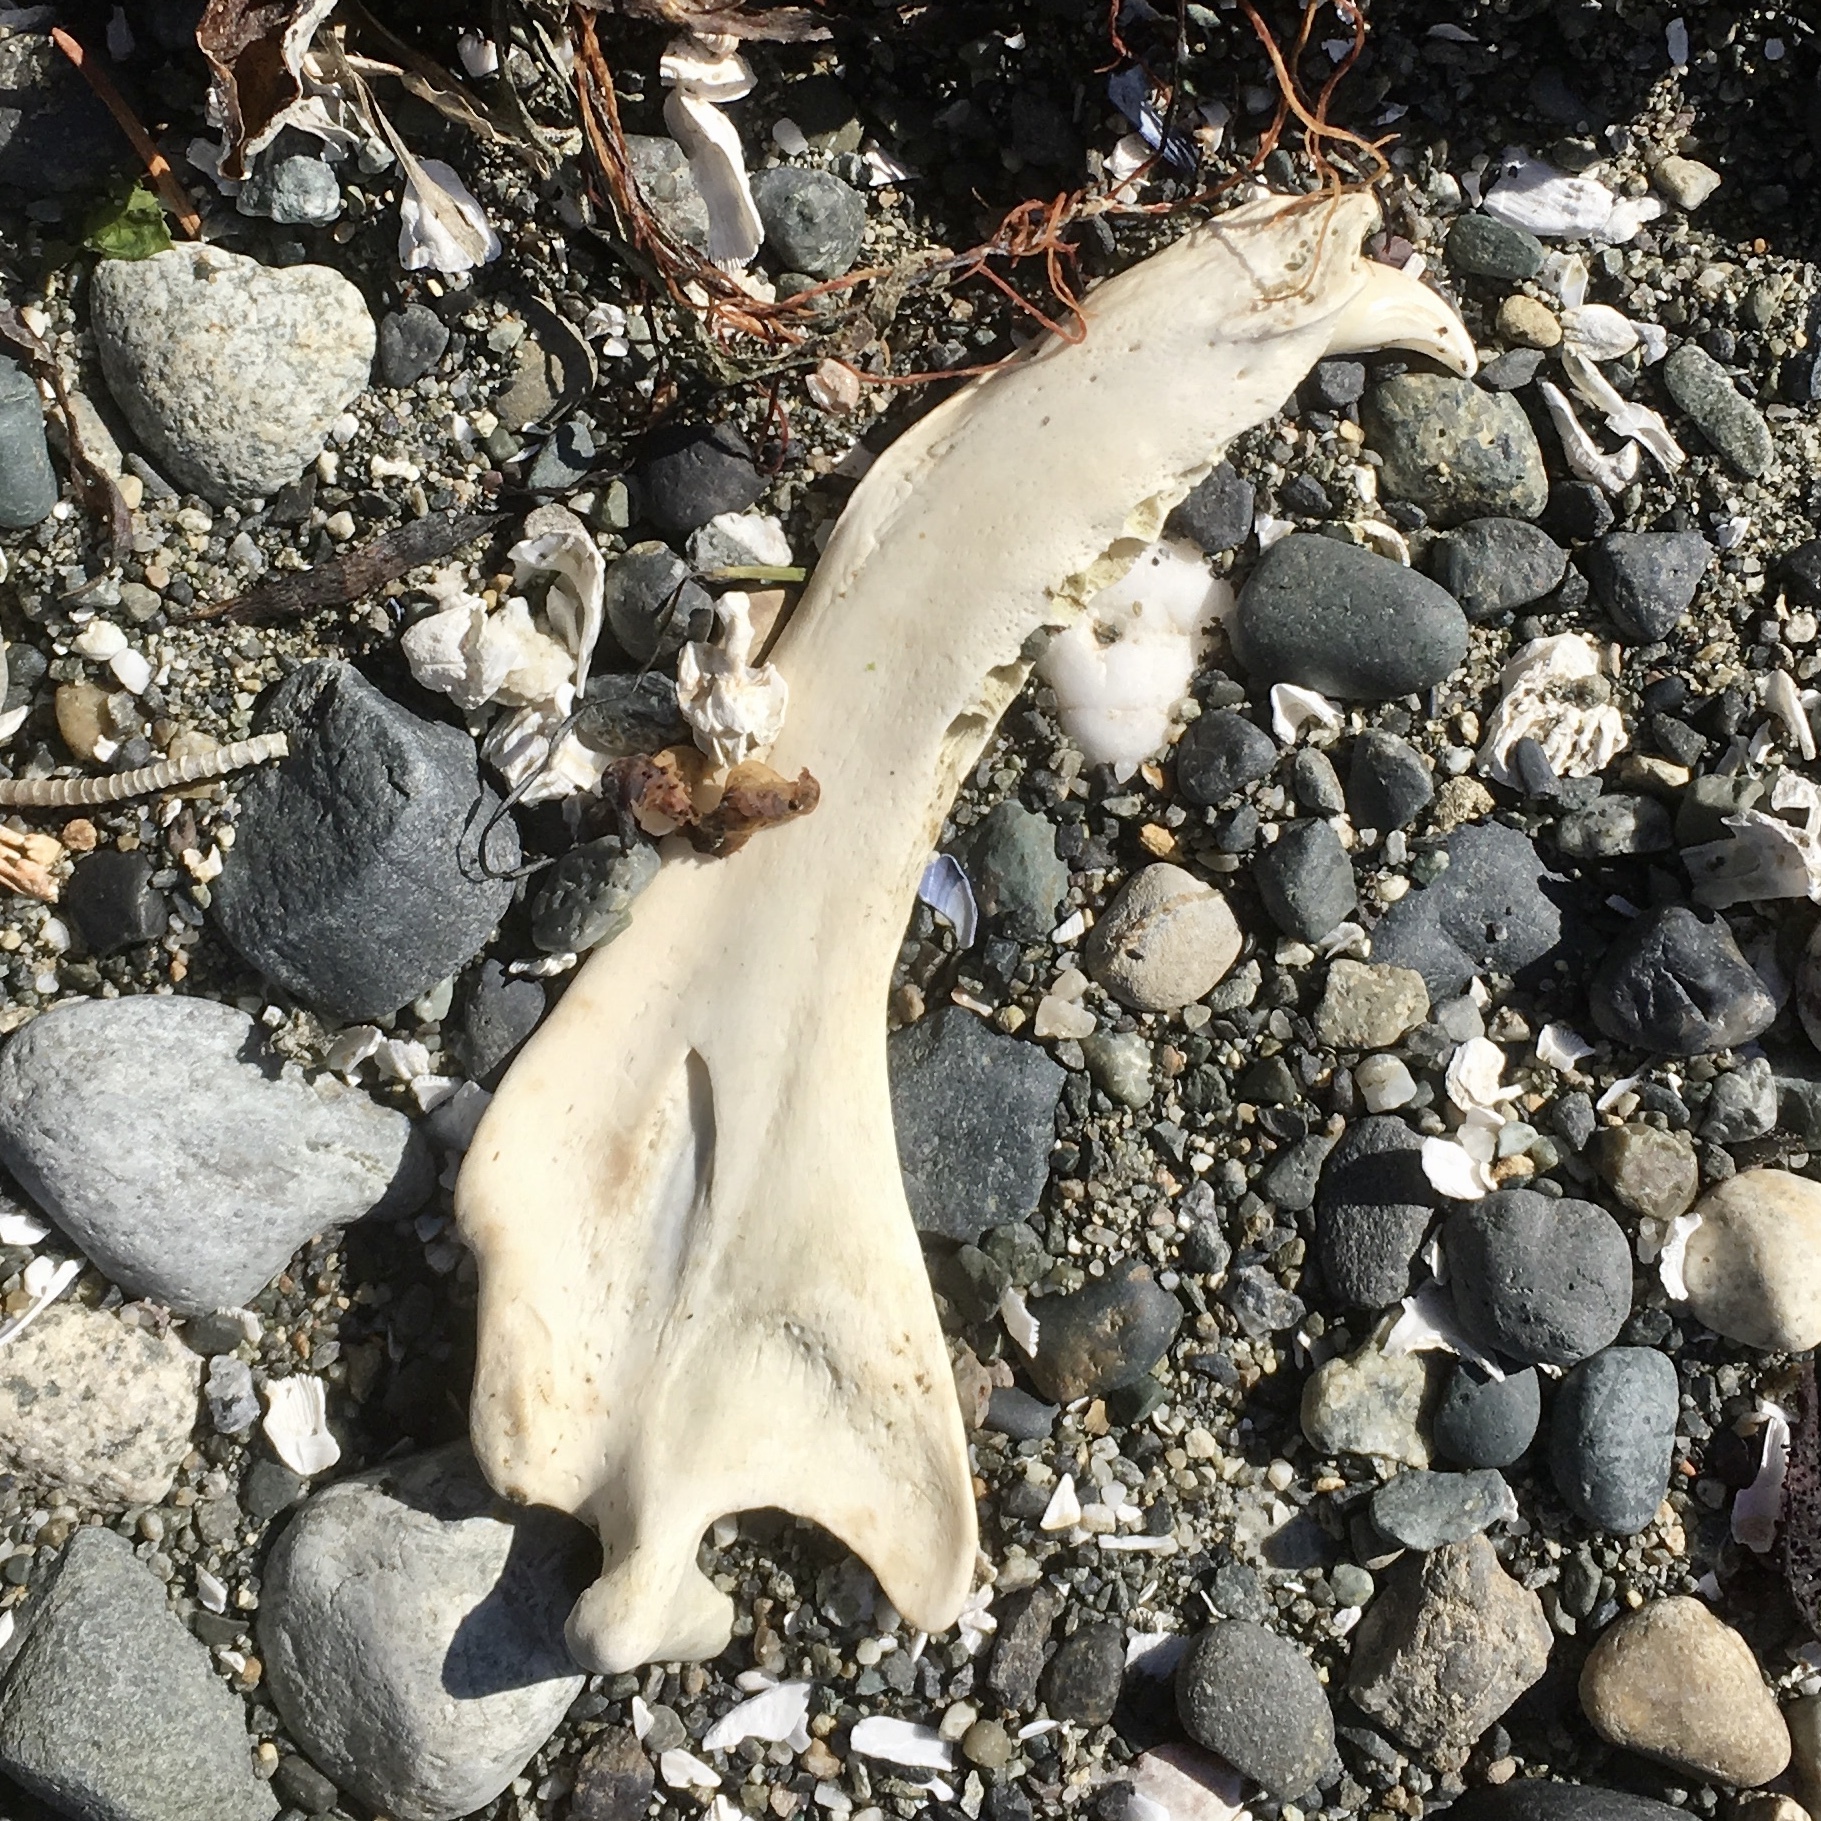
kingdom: Animalia
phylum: Chordata
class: Mammalia
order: Carnivora
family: Phocidae
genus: Phoca
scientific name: Phoca vitulina
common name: Harbor seal
